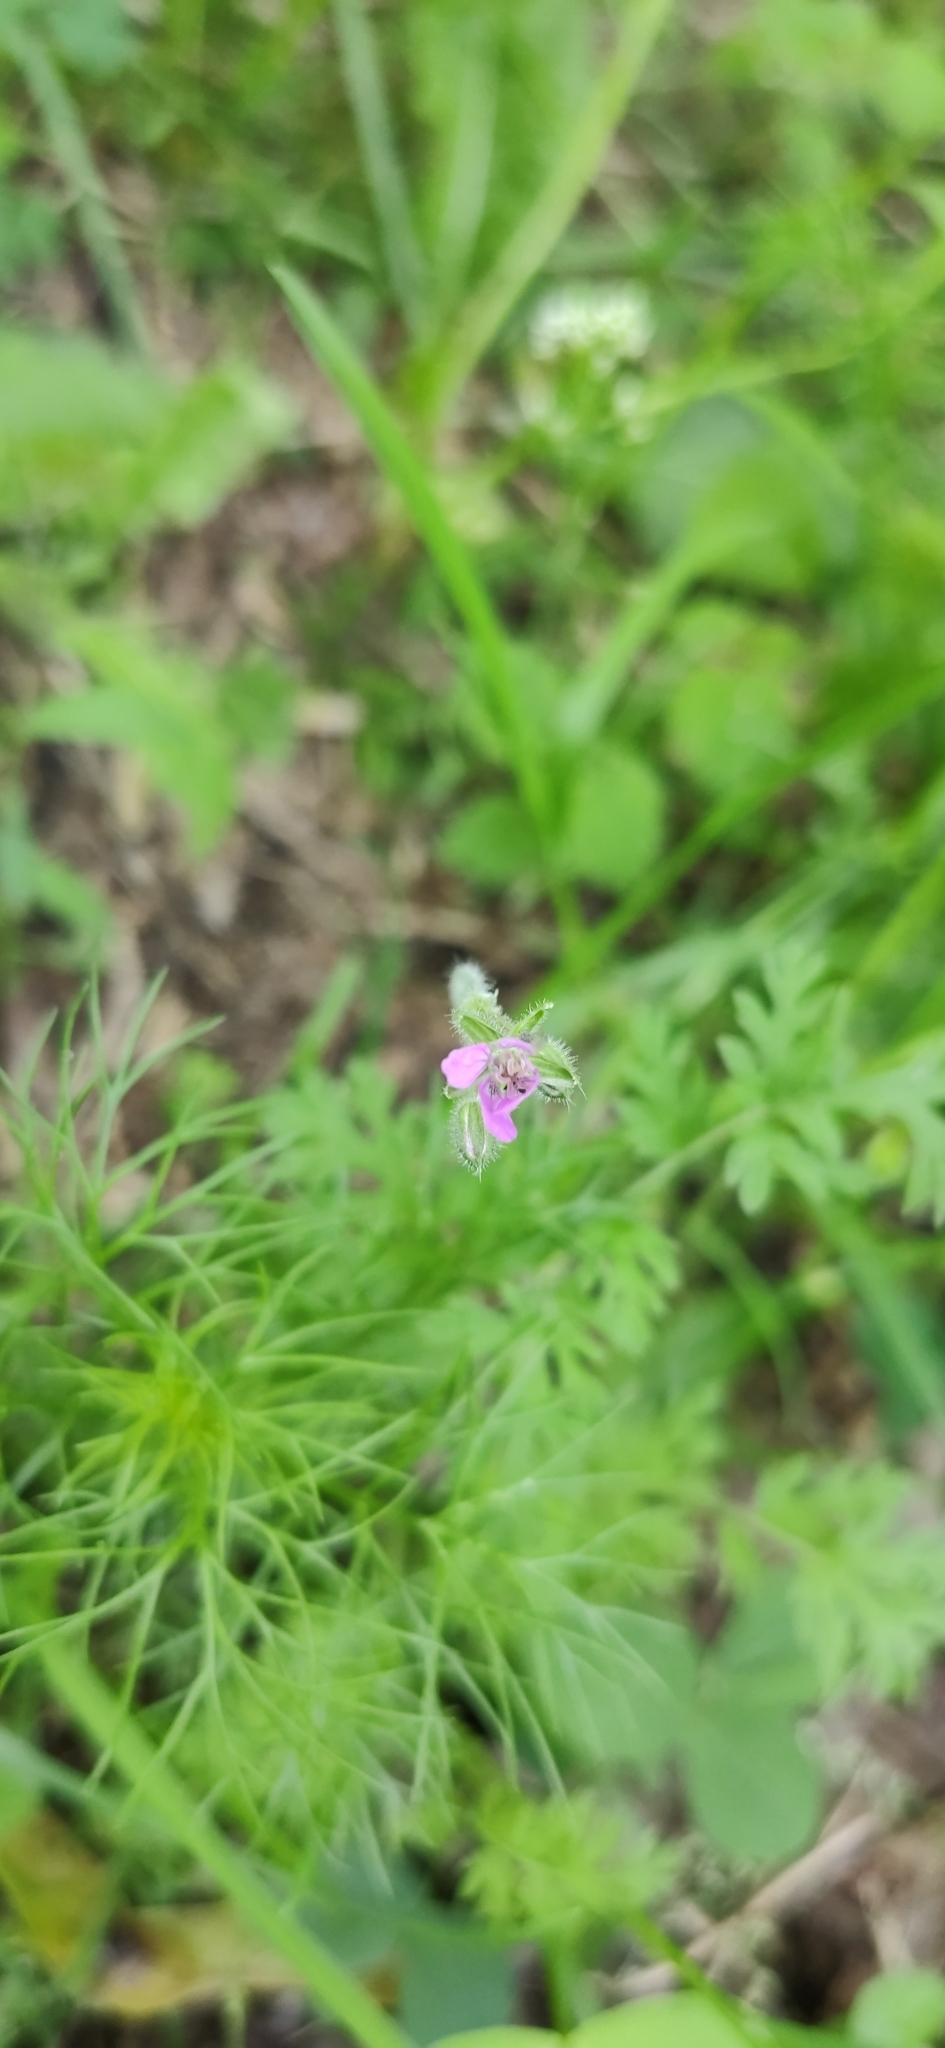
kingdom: Plantae
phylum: Tracheophyta
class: Magnoliopsida
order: Geraniales
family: Geraniaceae
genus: Erodium
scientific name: Erodium cicutarium
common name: Common stork's-bill
